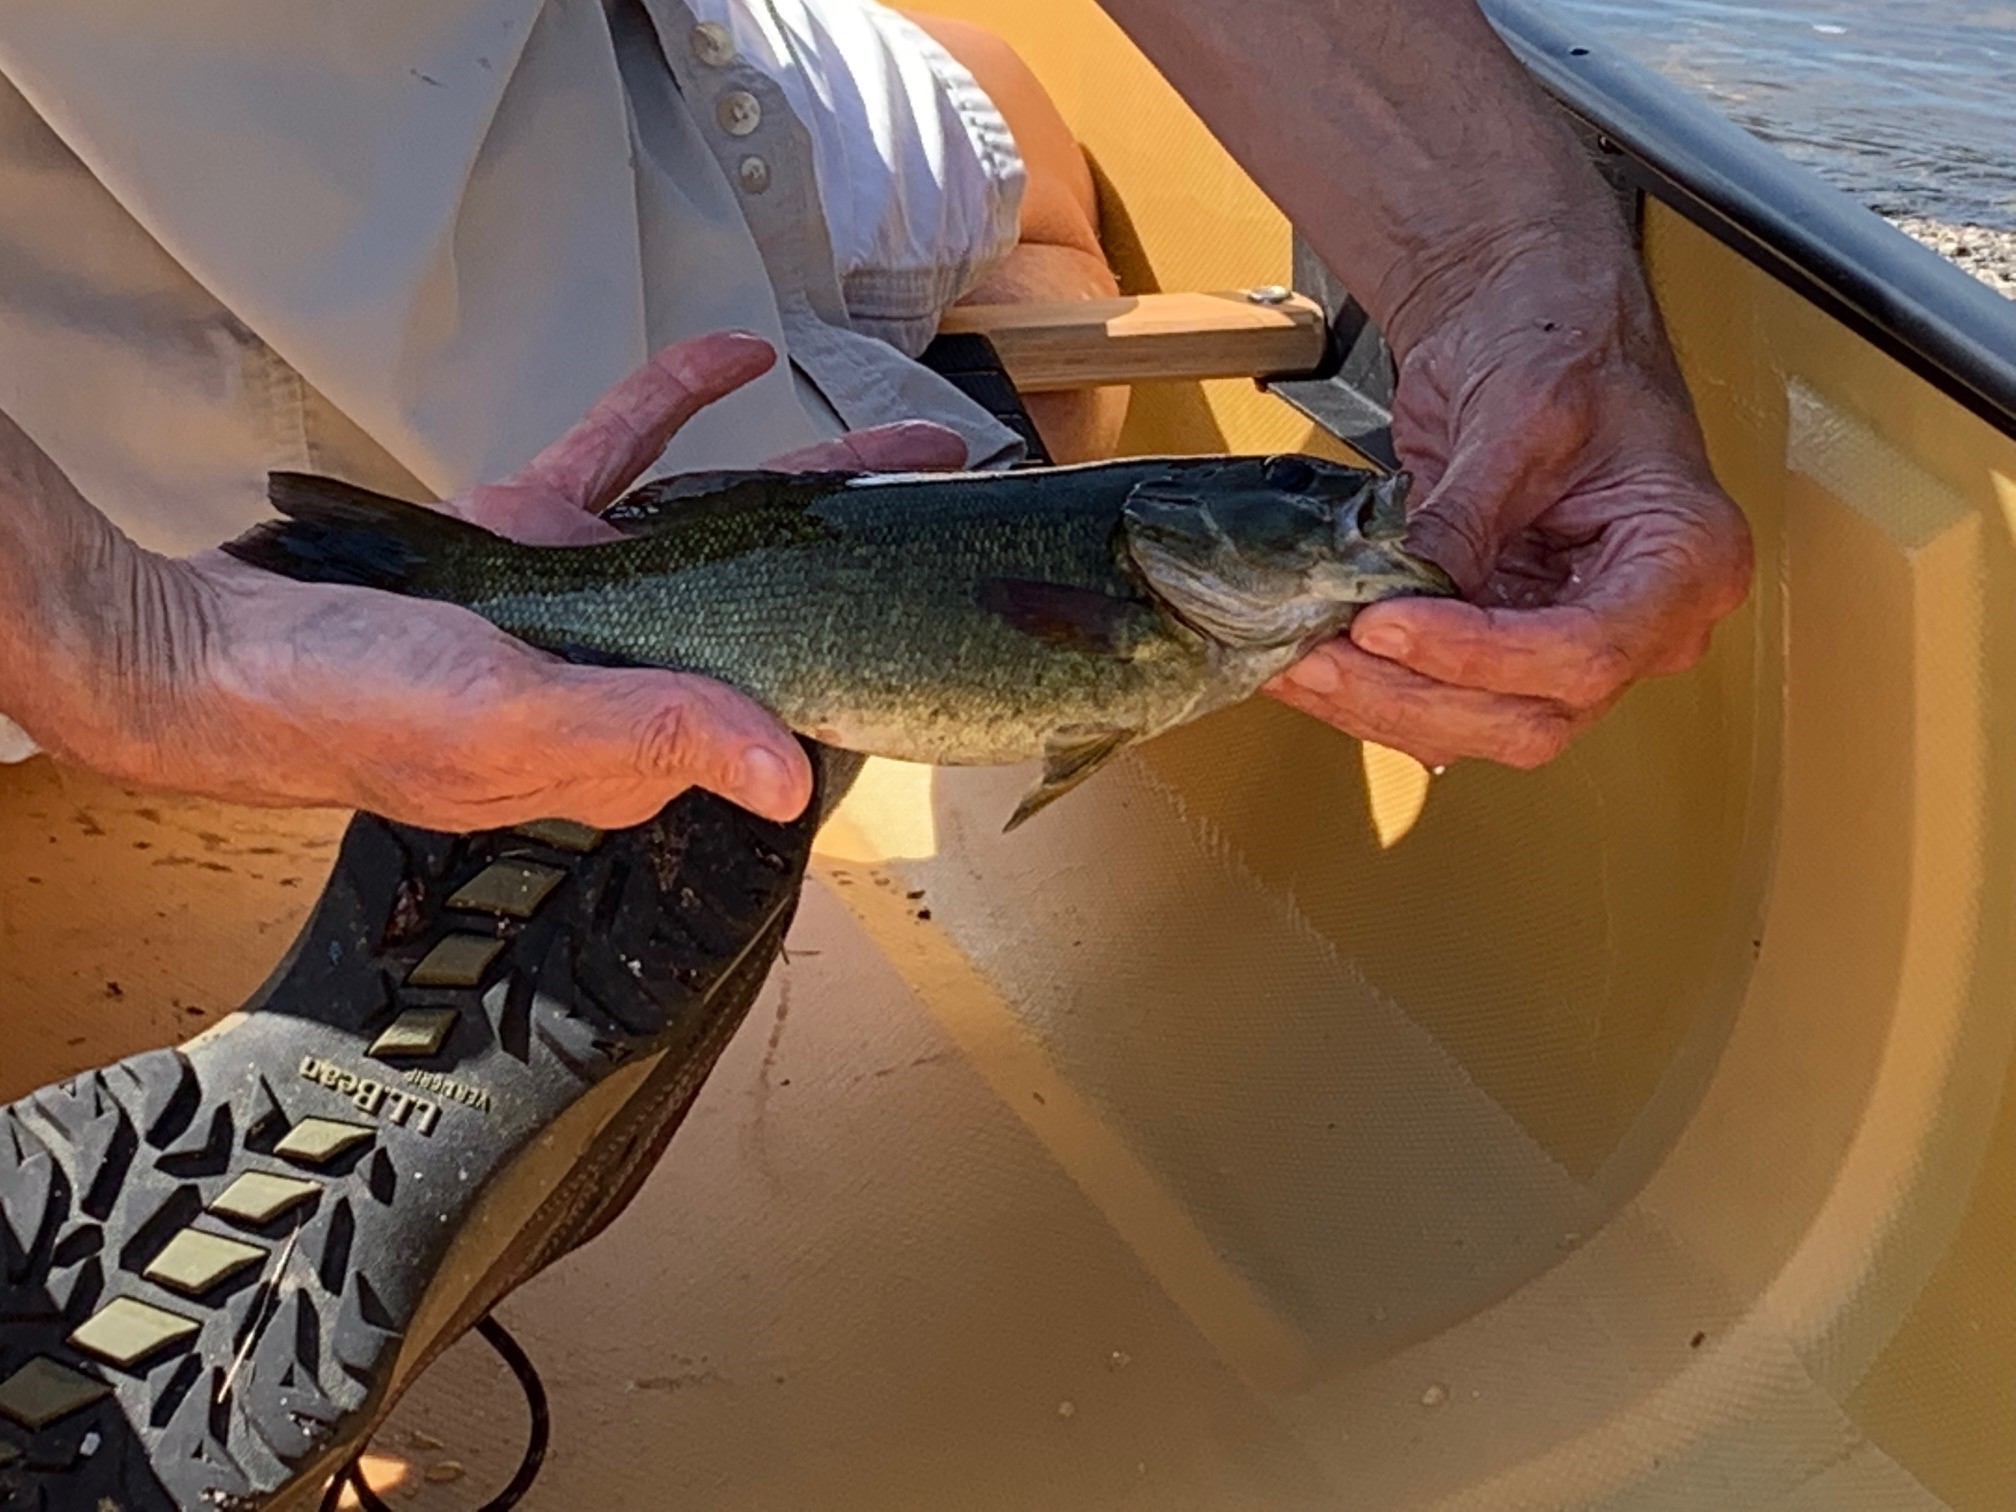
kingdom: Animalia
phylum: Chordata
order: Perciformes
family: Centrarchidae
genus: Micropterus
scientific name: Micropterus dolomieu
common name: Smallmouth bass
